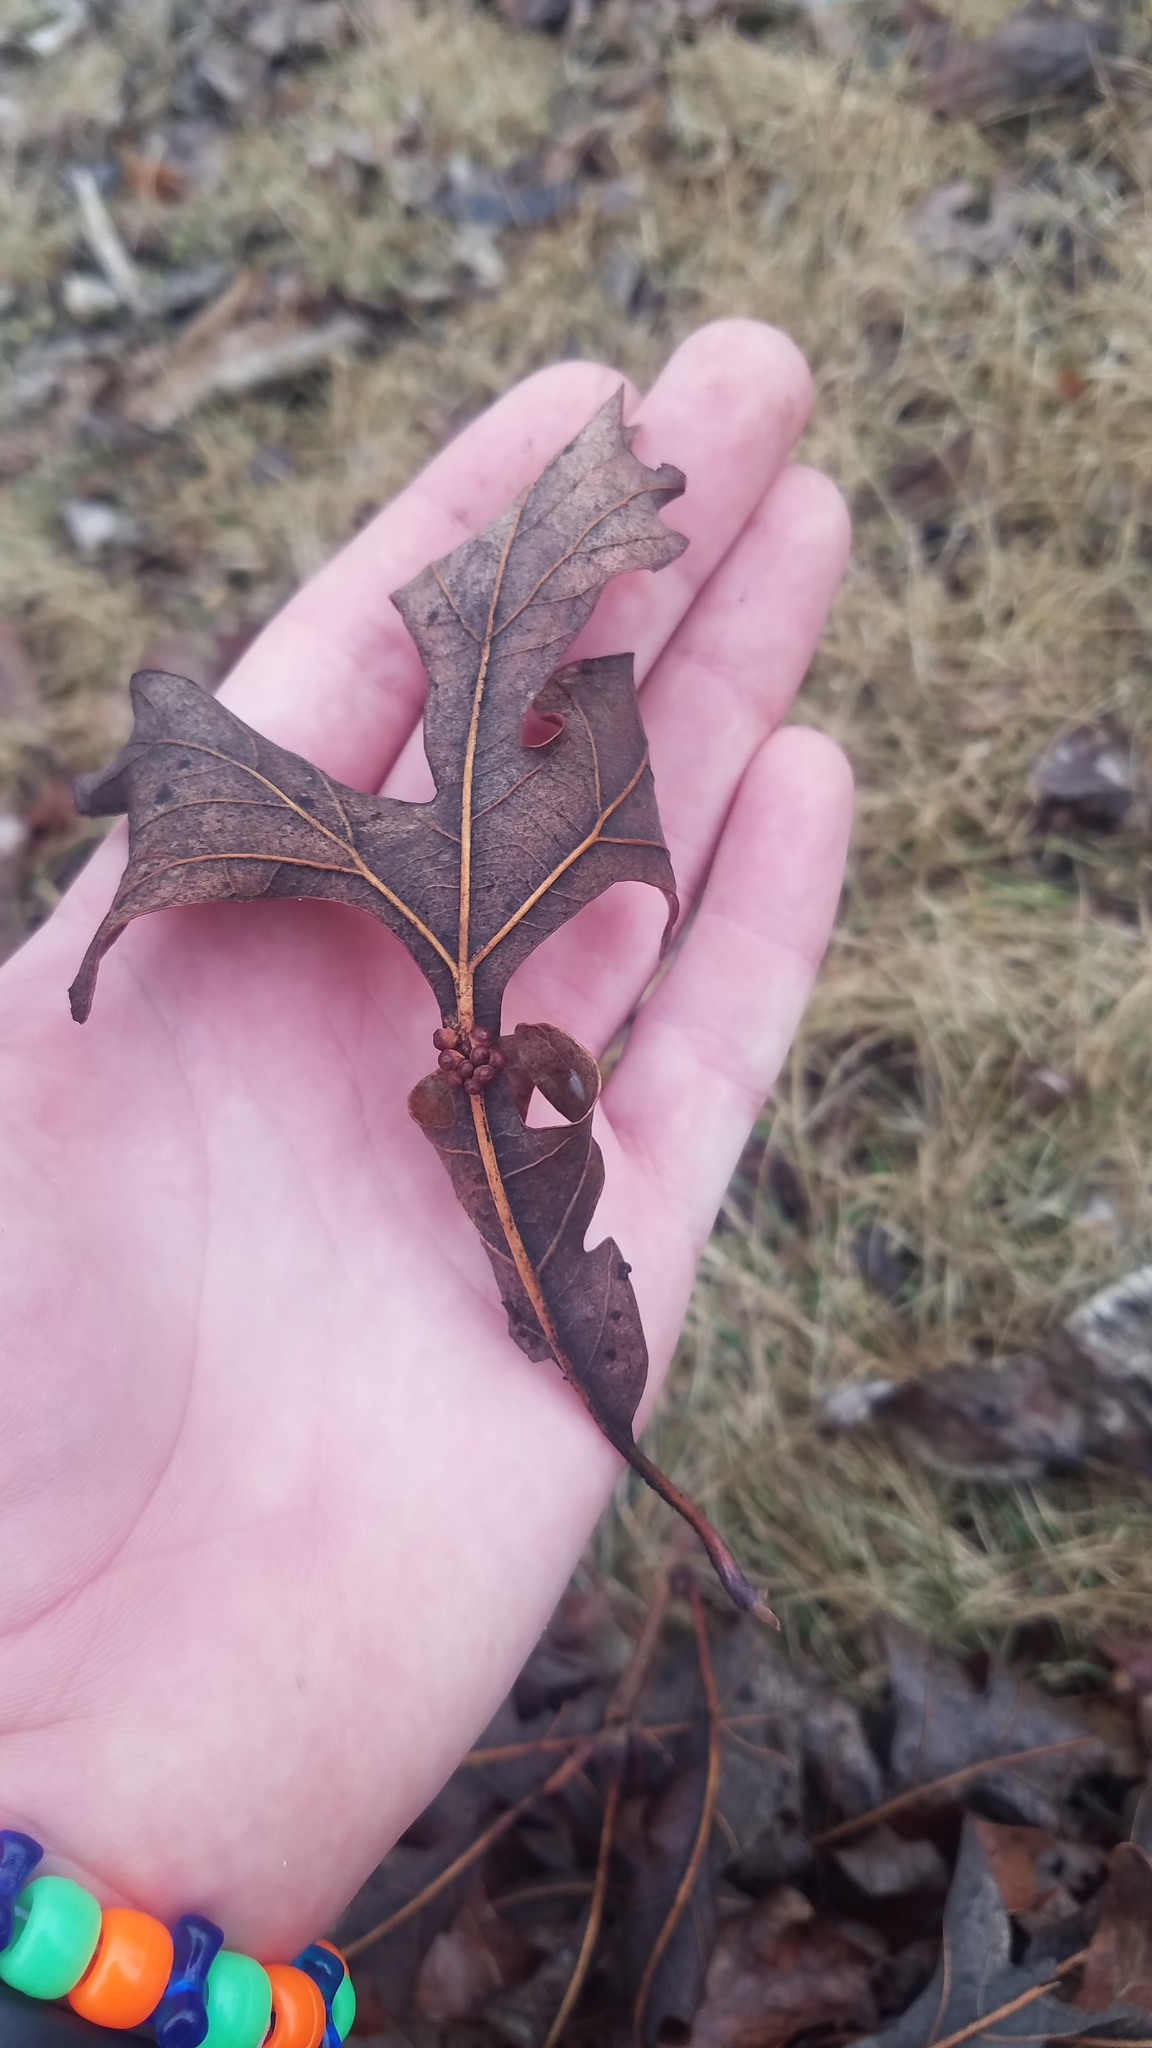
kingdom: Animalia
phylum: Arthropoda
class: Insecta
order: Hymenoptera
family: Cynipidae
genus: Andricus
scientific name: Andricus
